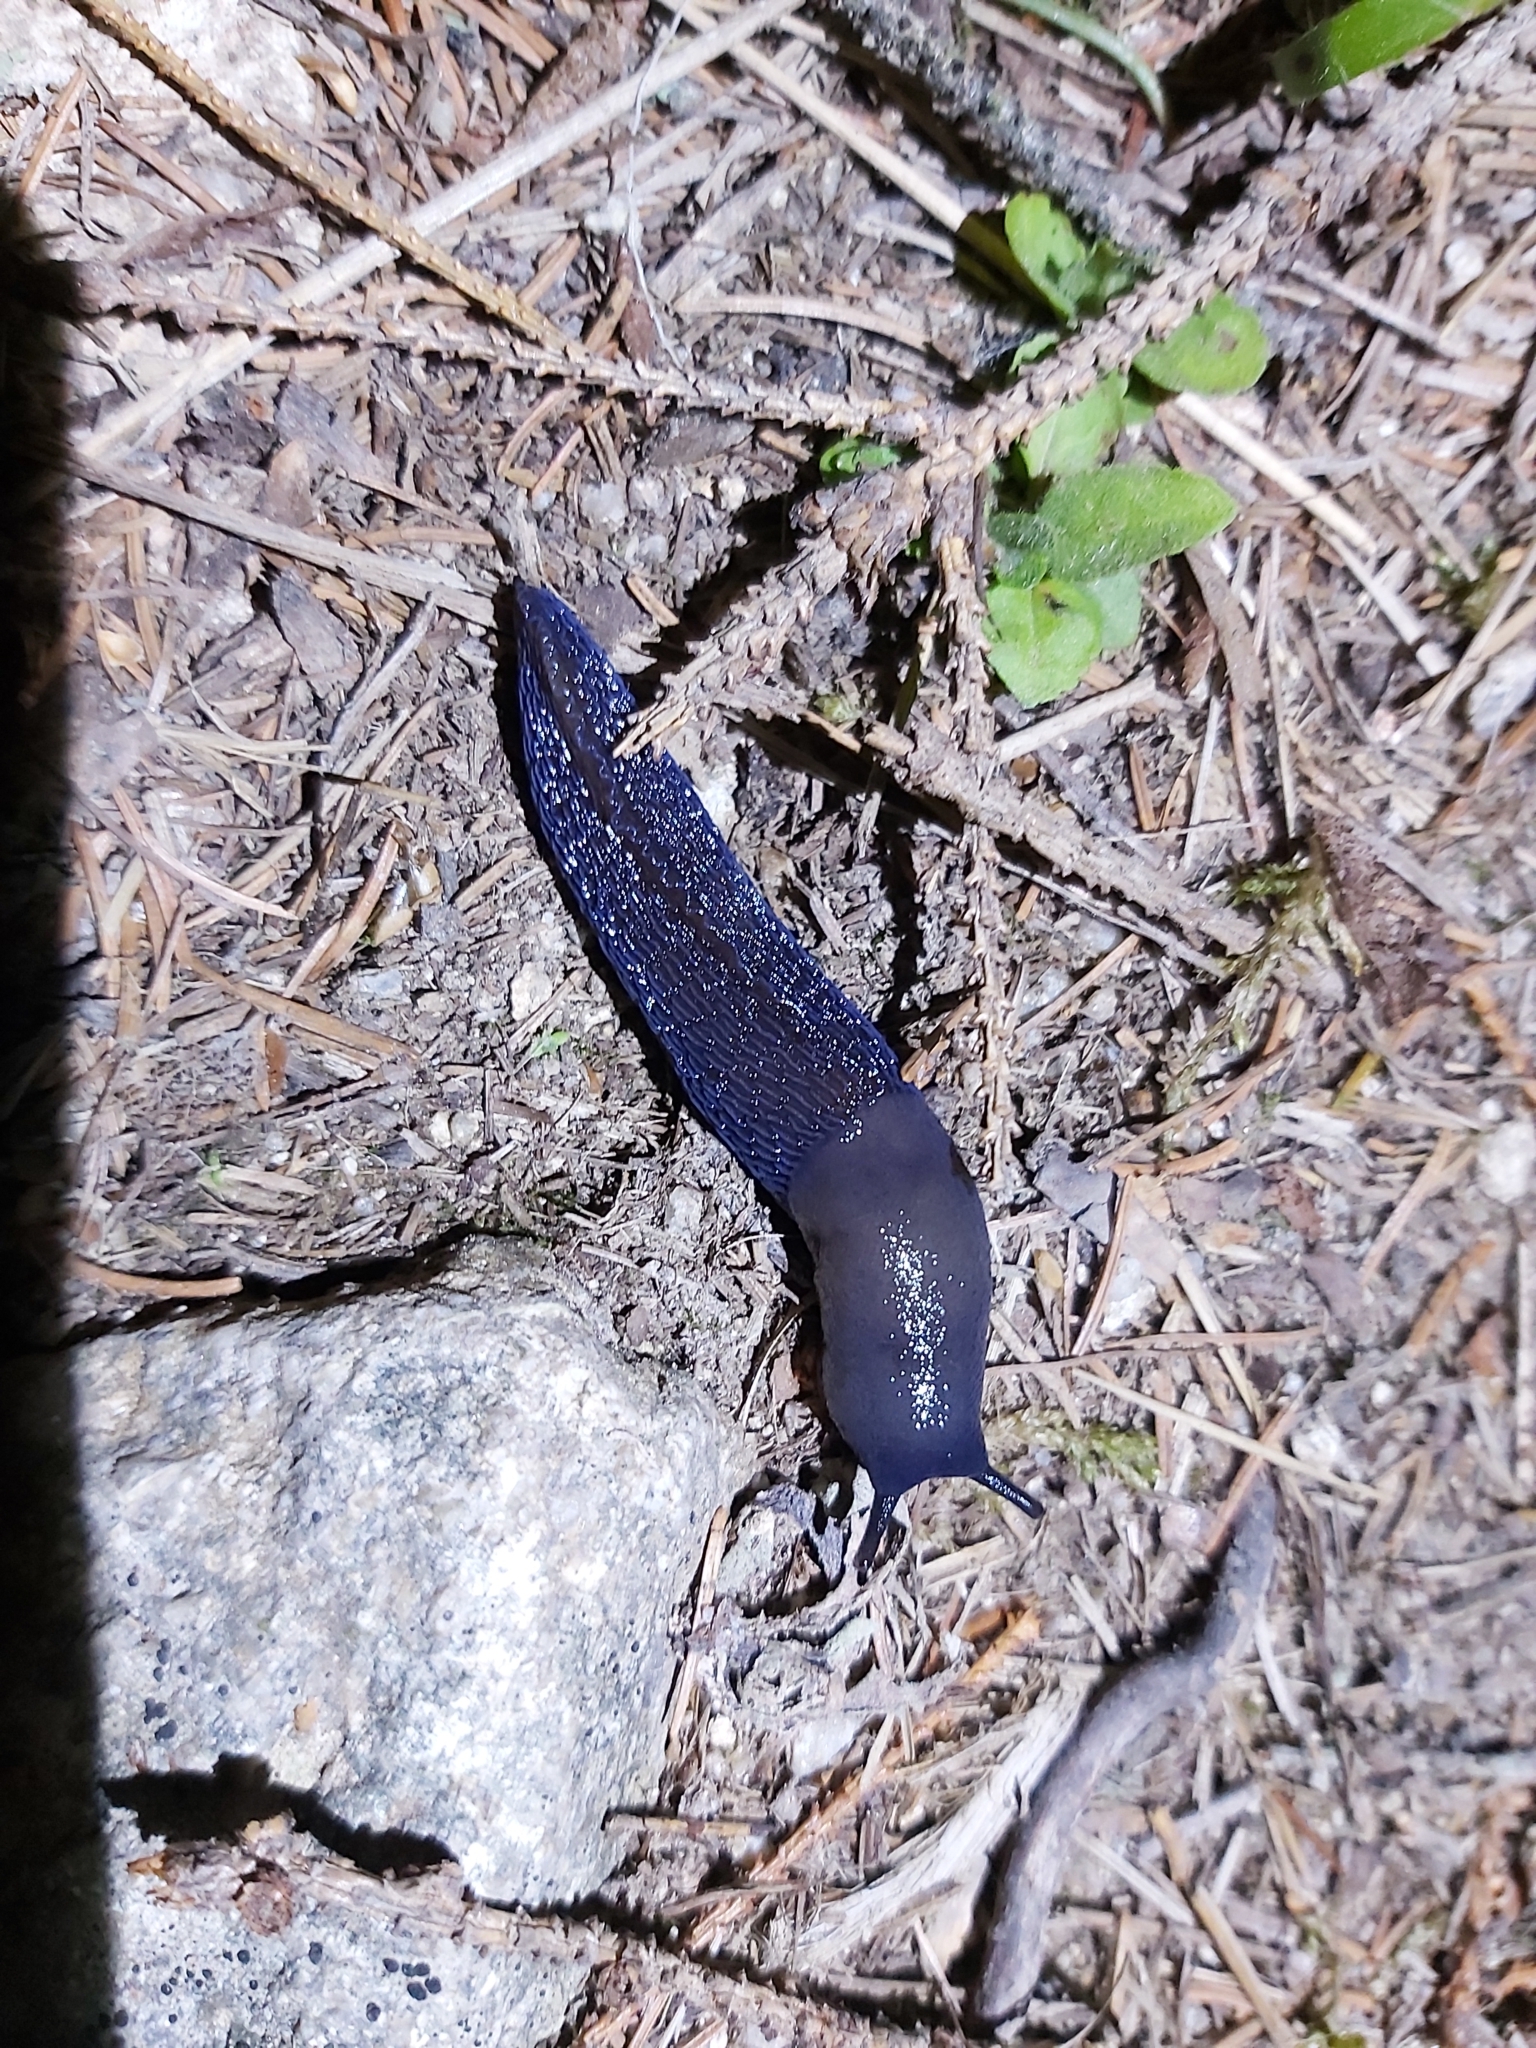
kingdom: Animalia
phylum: Mollusca
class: Gastropoda
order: Stylommatophora
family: Limacidae
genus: Bielzia
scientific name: Bielzia coerulans
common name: Carpathian blue slug
